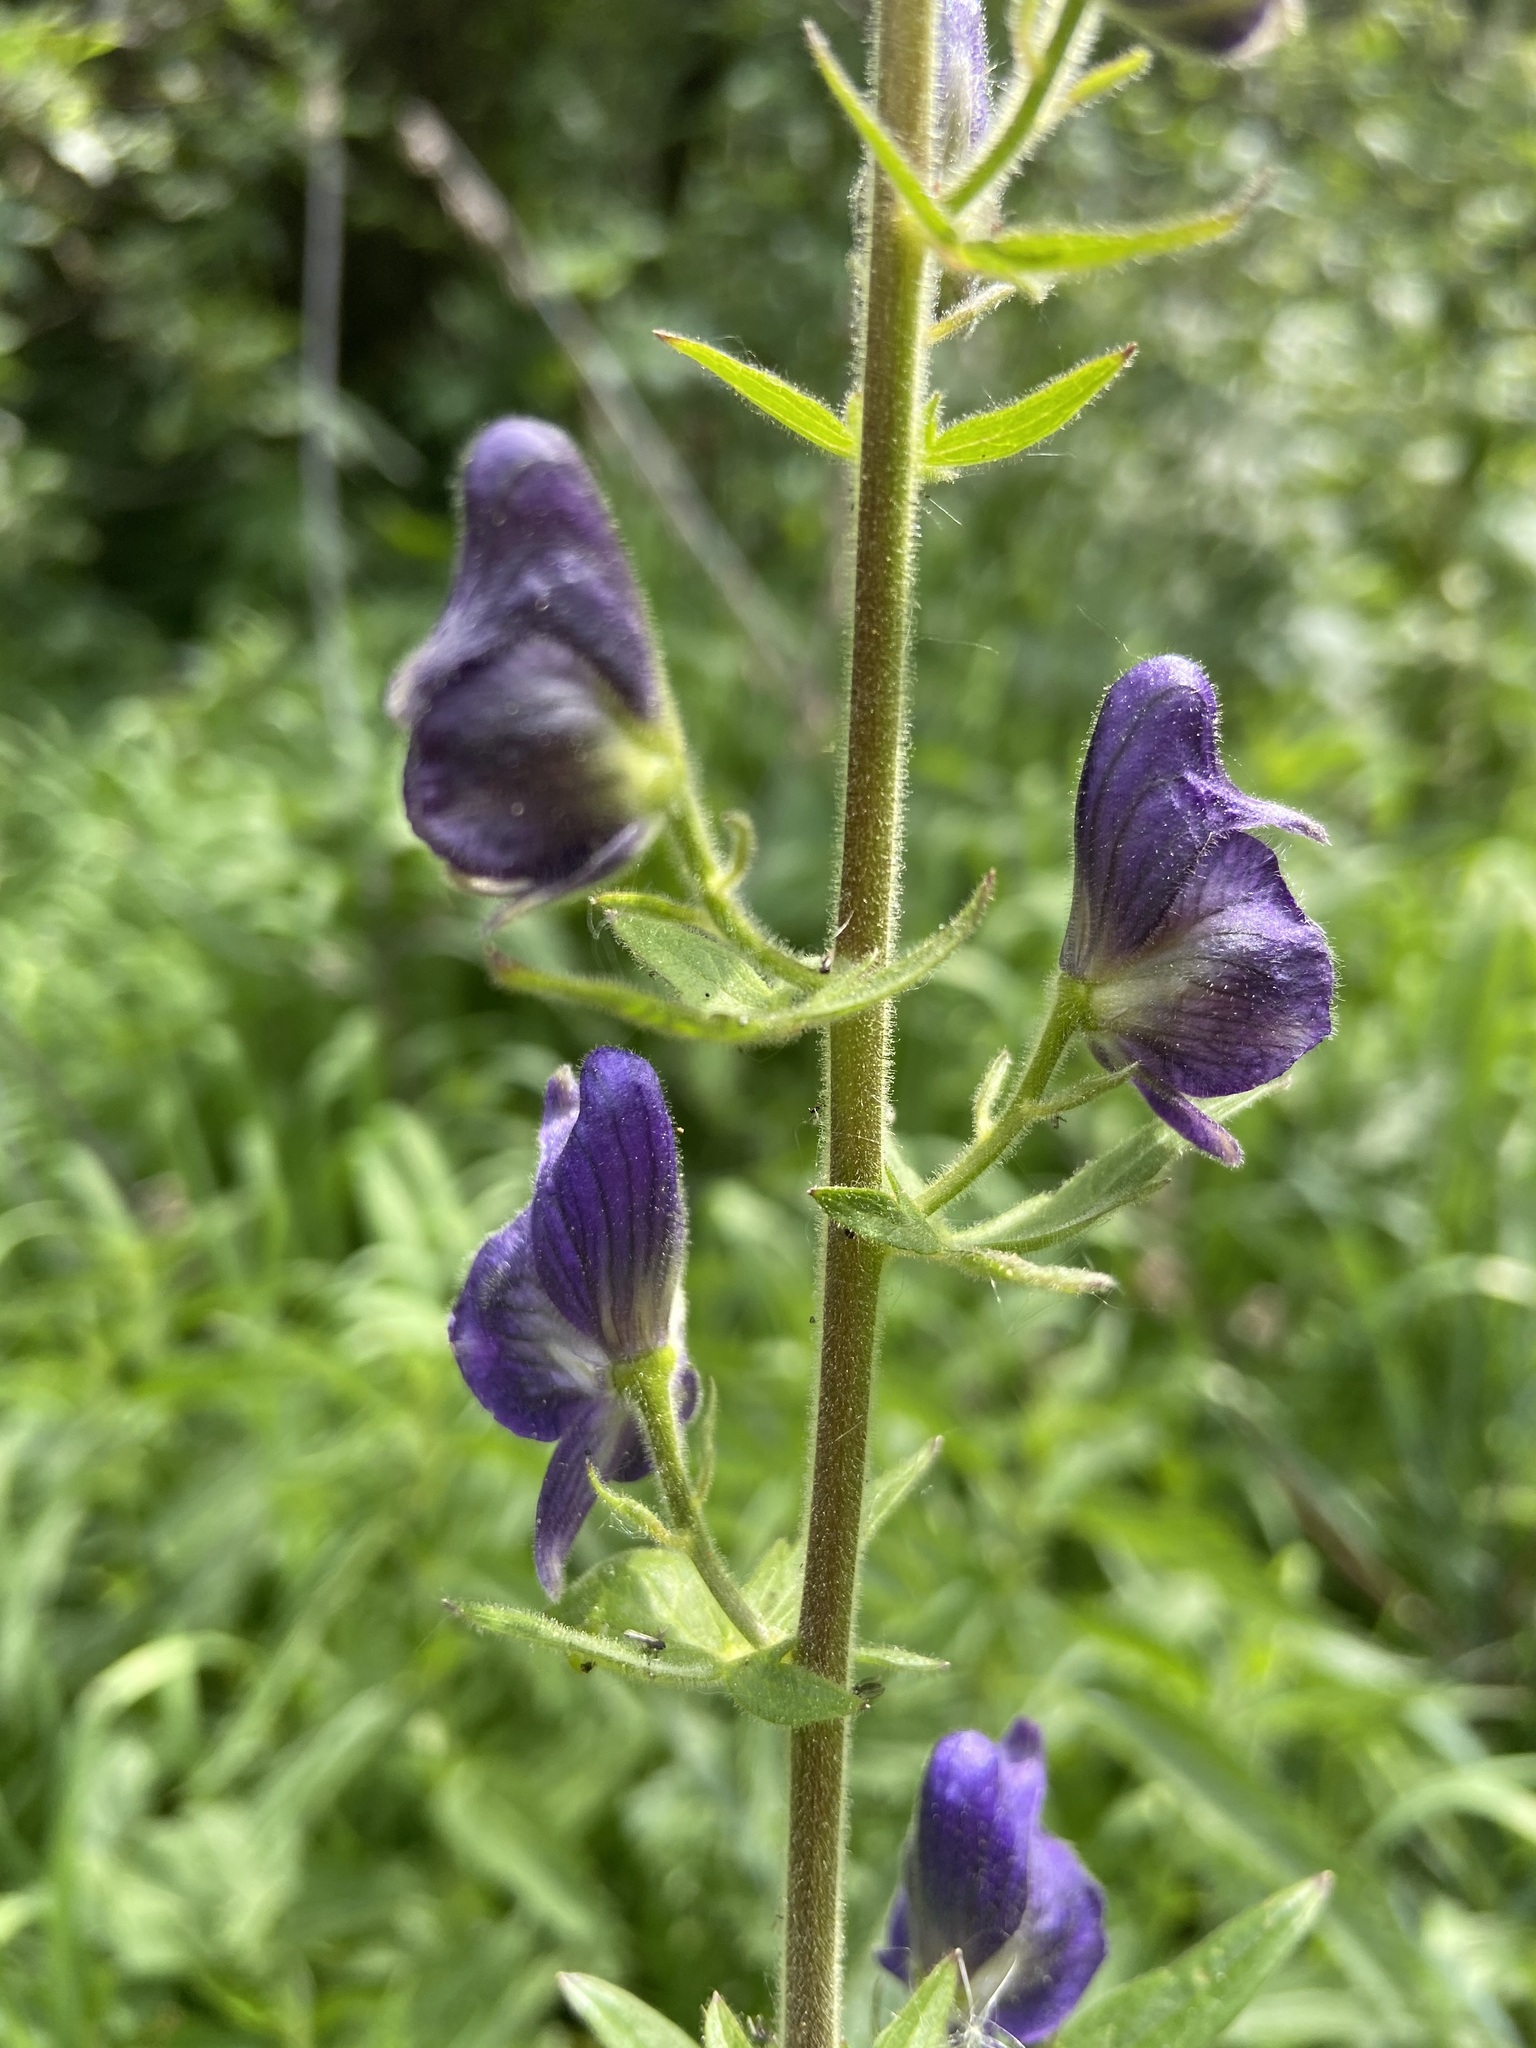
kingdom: Plantae
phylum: Tracheophyta
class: Magnoliopsida
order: Ranunculales
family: Ranunculaceae
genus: Aconitum
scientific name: Aconitum columbianum
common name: Columbia aconite
